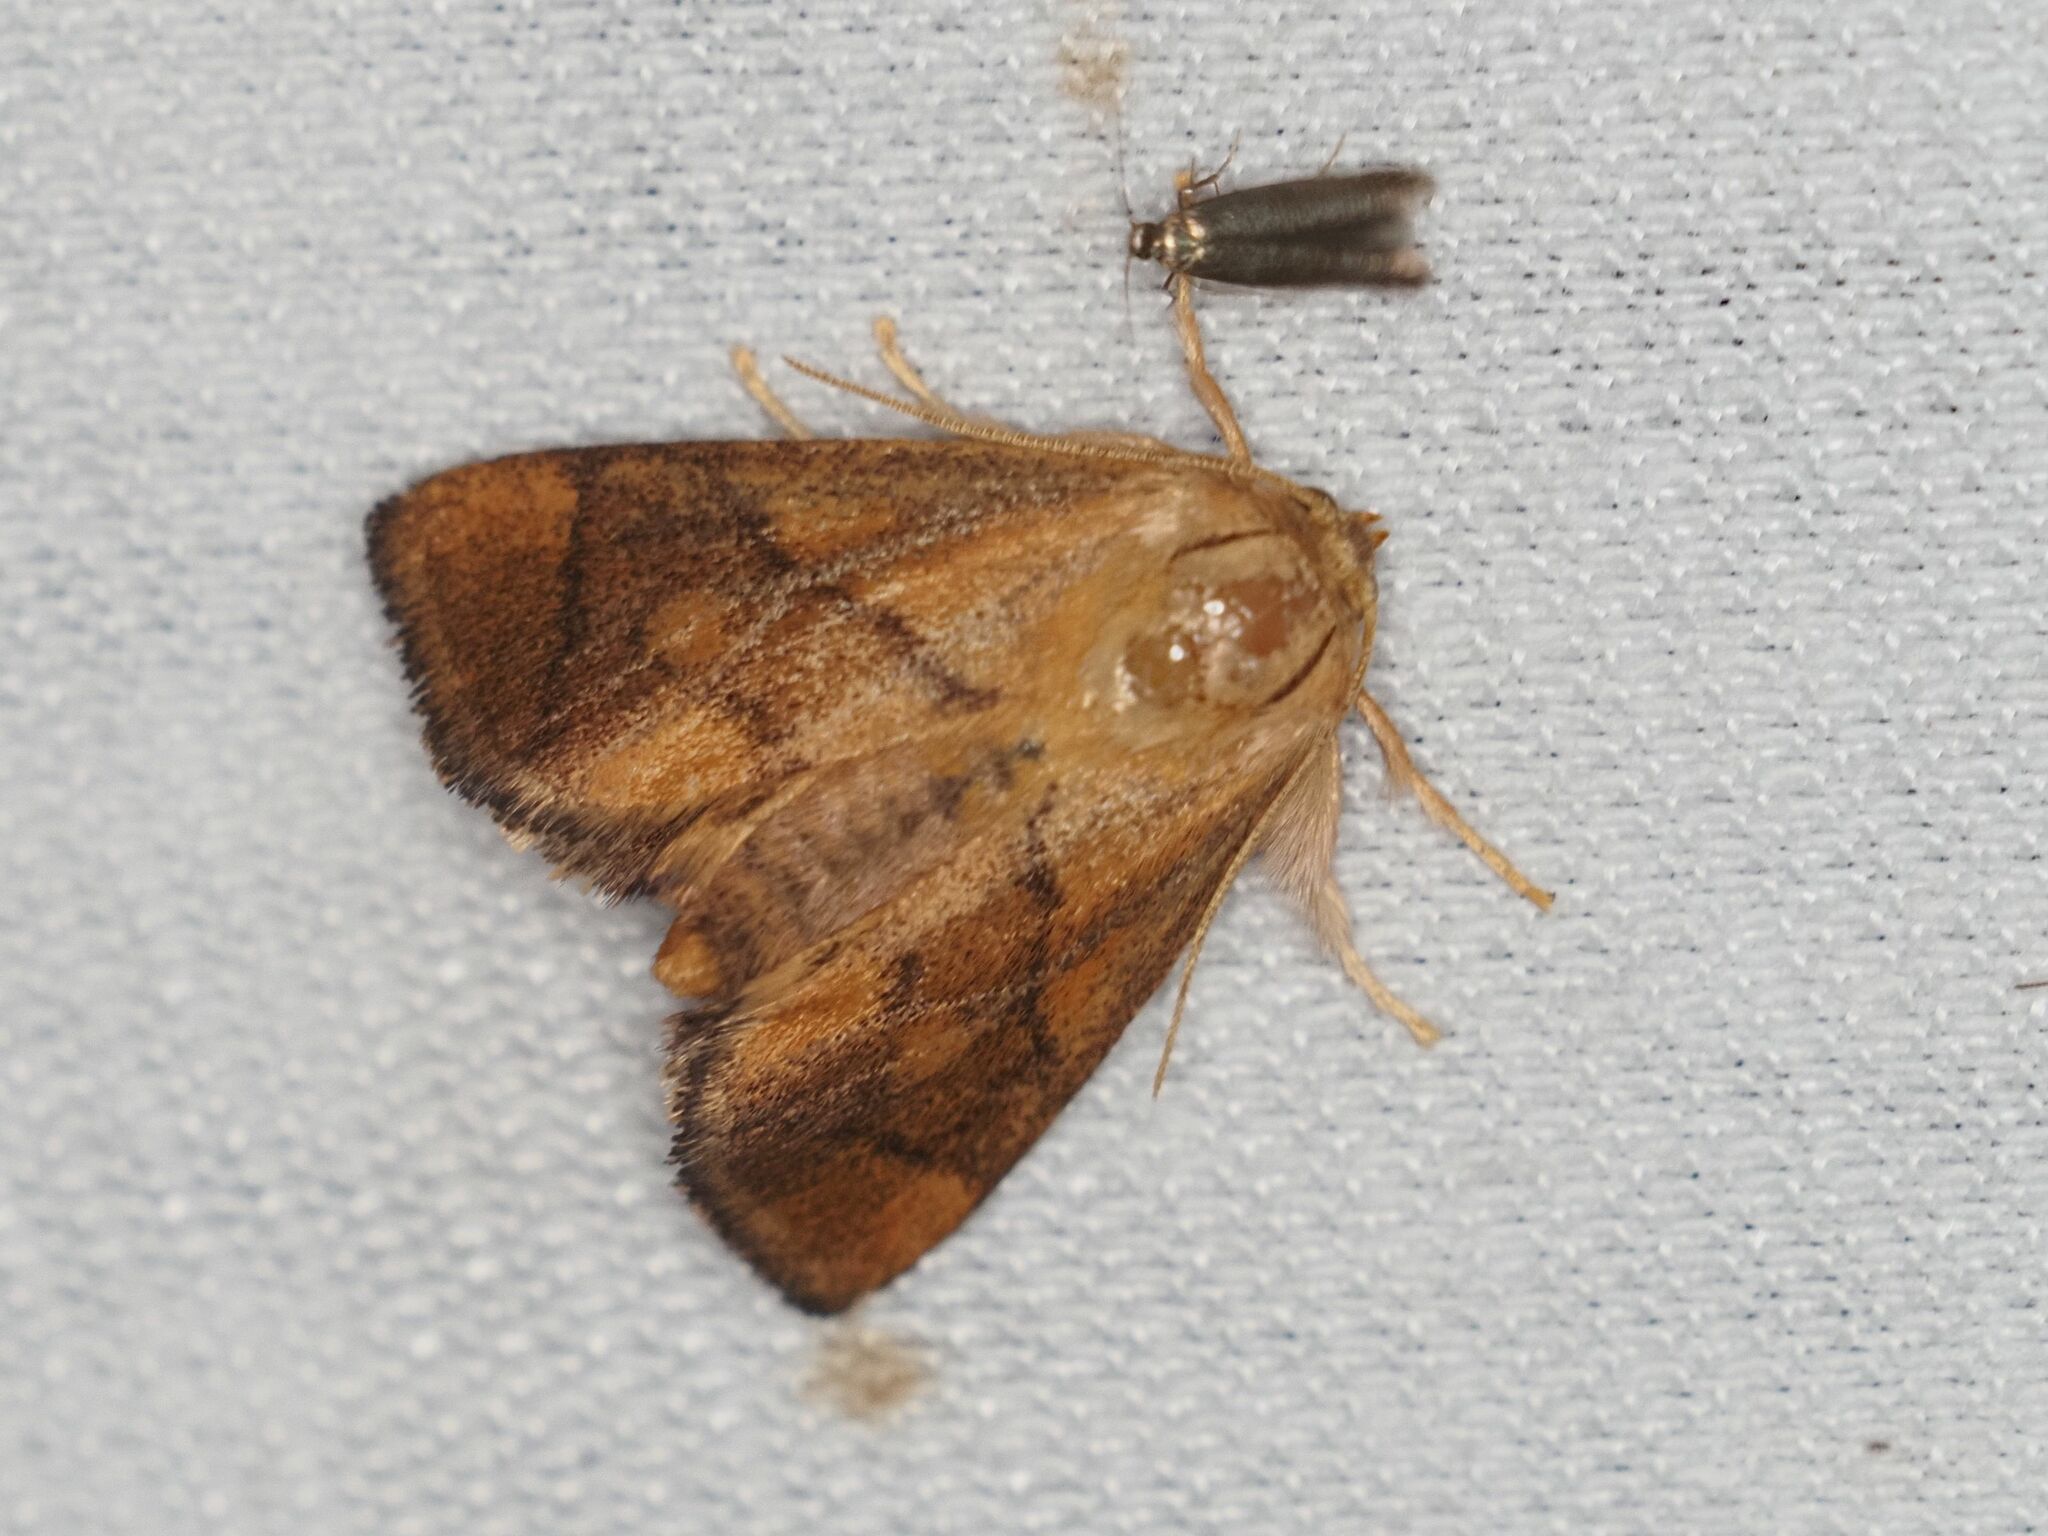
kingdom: Animalia
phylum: Arthropoda
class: Insecta
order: Lepidoptera
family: Limacodidae
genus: Apoda
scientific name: Apoda limacodes
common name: Festoon
